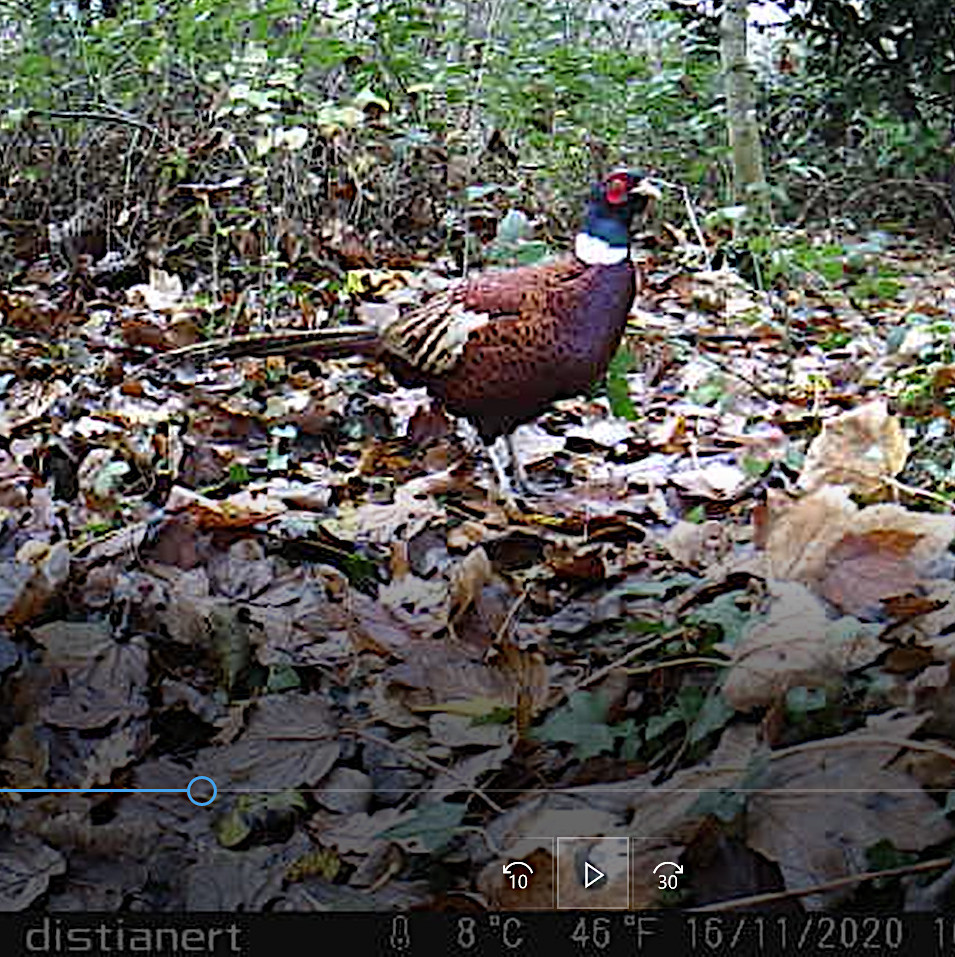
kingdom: Animalia
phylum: Chordata
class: Aves
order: Galliformes
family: Phasianidae
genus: Phasianus
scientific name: Phasianus colchicus
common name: Common pheasant
